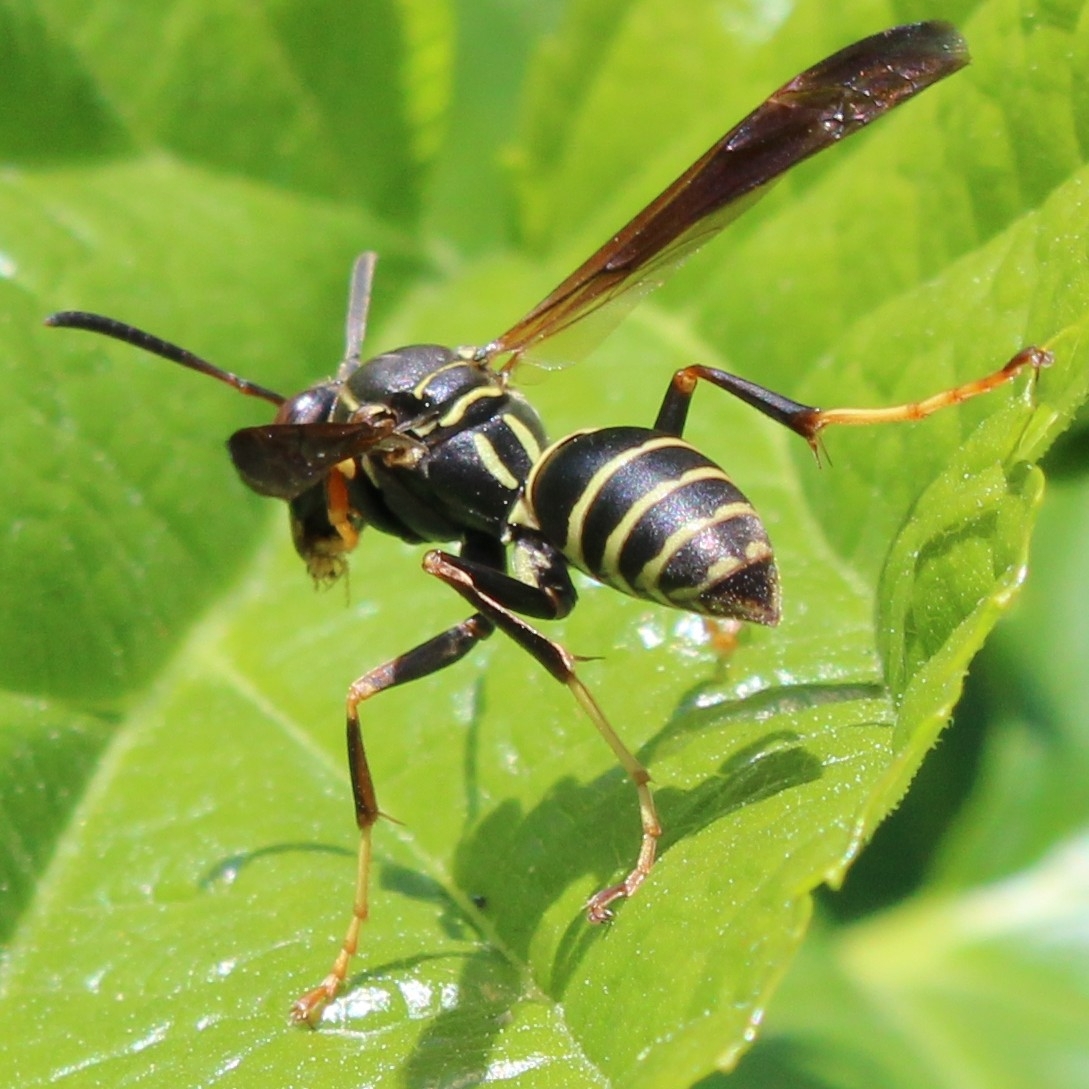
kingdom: Animalia
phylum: Arthropoda
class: Insecta
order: Hymenoptera
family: Eumenidae
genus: Polistes
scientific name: Polistes fuscatus
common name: Dark paper wasp
